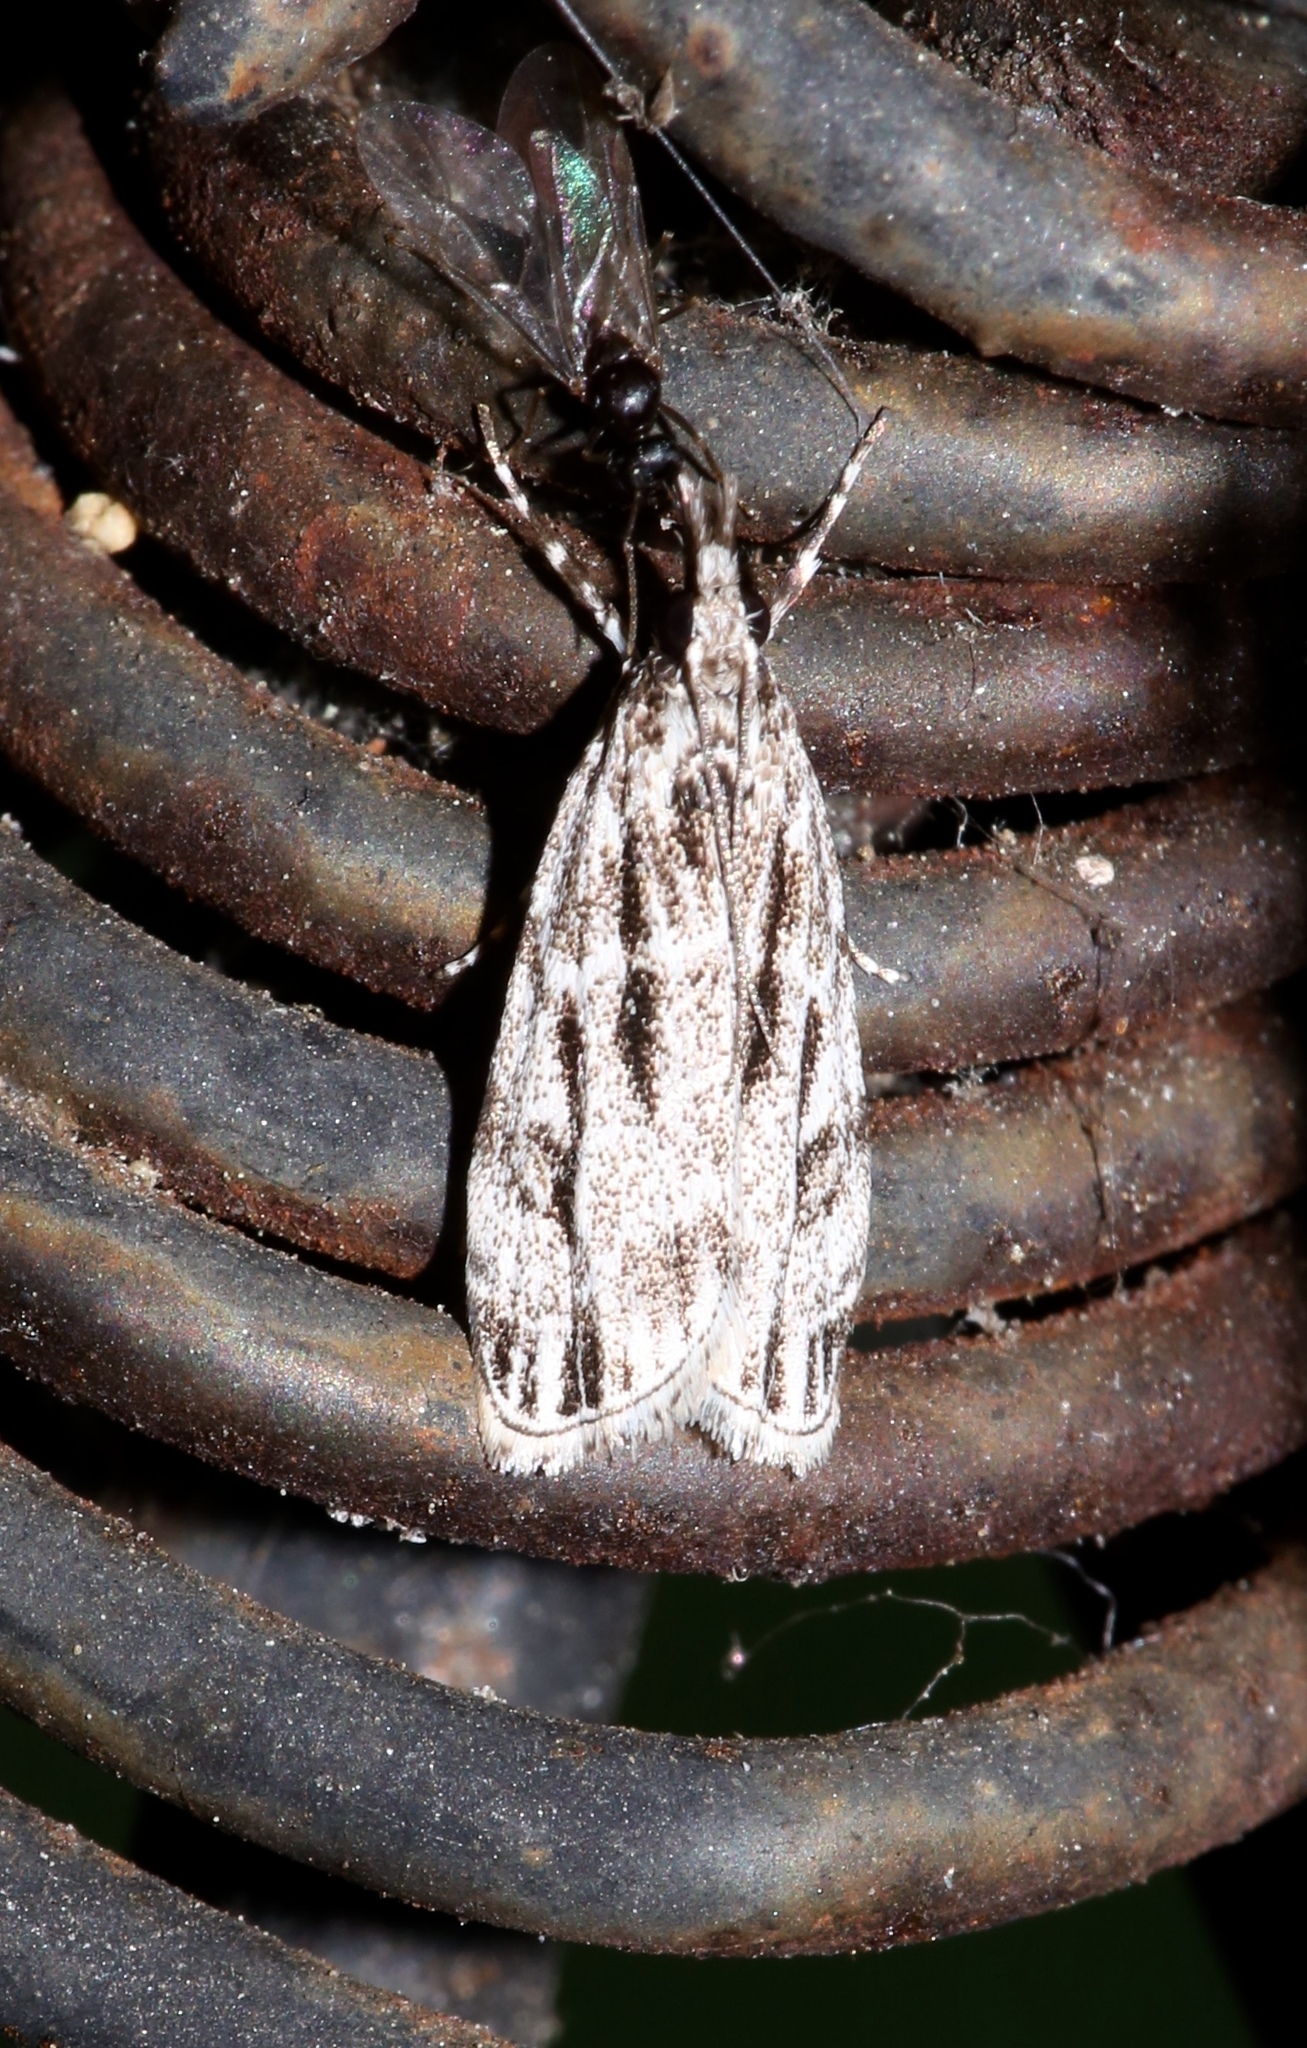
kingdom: Animalia
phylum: Arthropoda
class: Insecta
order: Lepidoptera
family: Crambidae
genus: Eudonia
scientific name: Eudonia strigalis
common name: Striped eudonia moth
